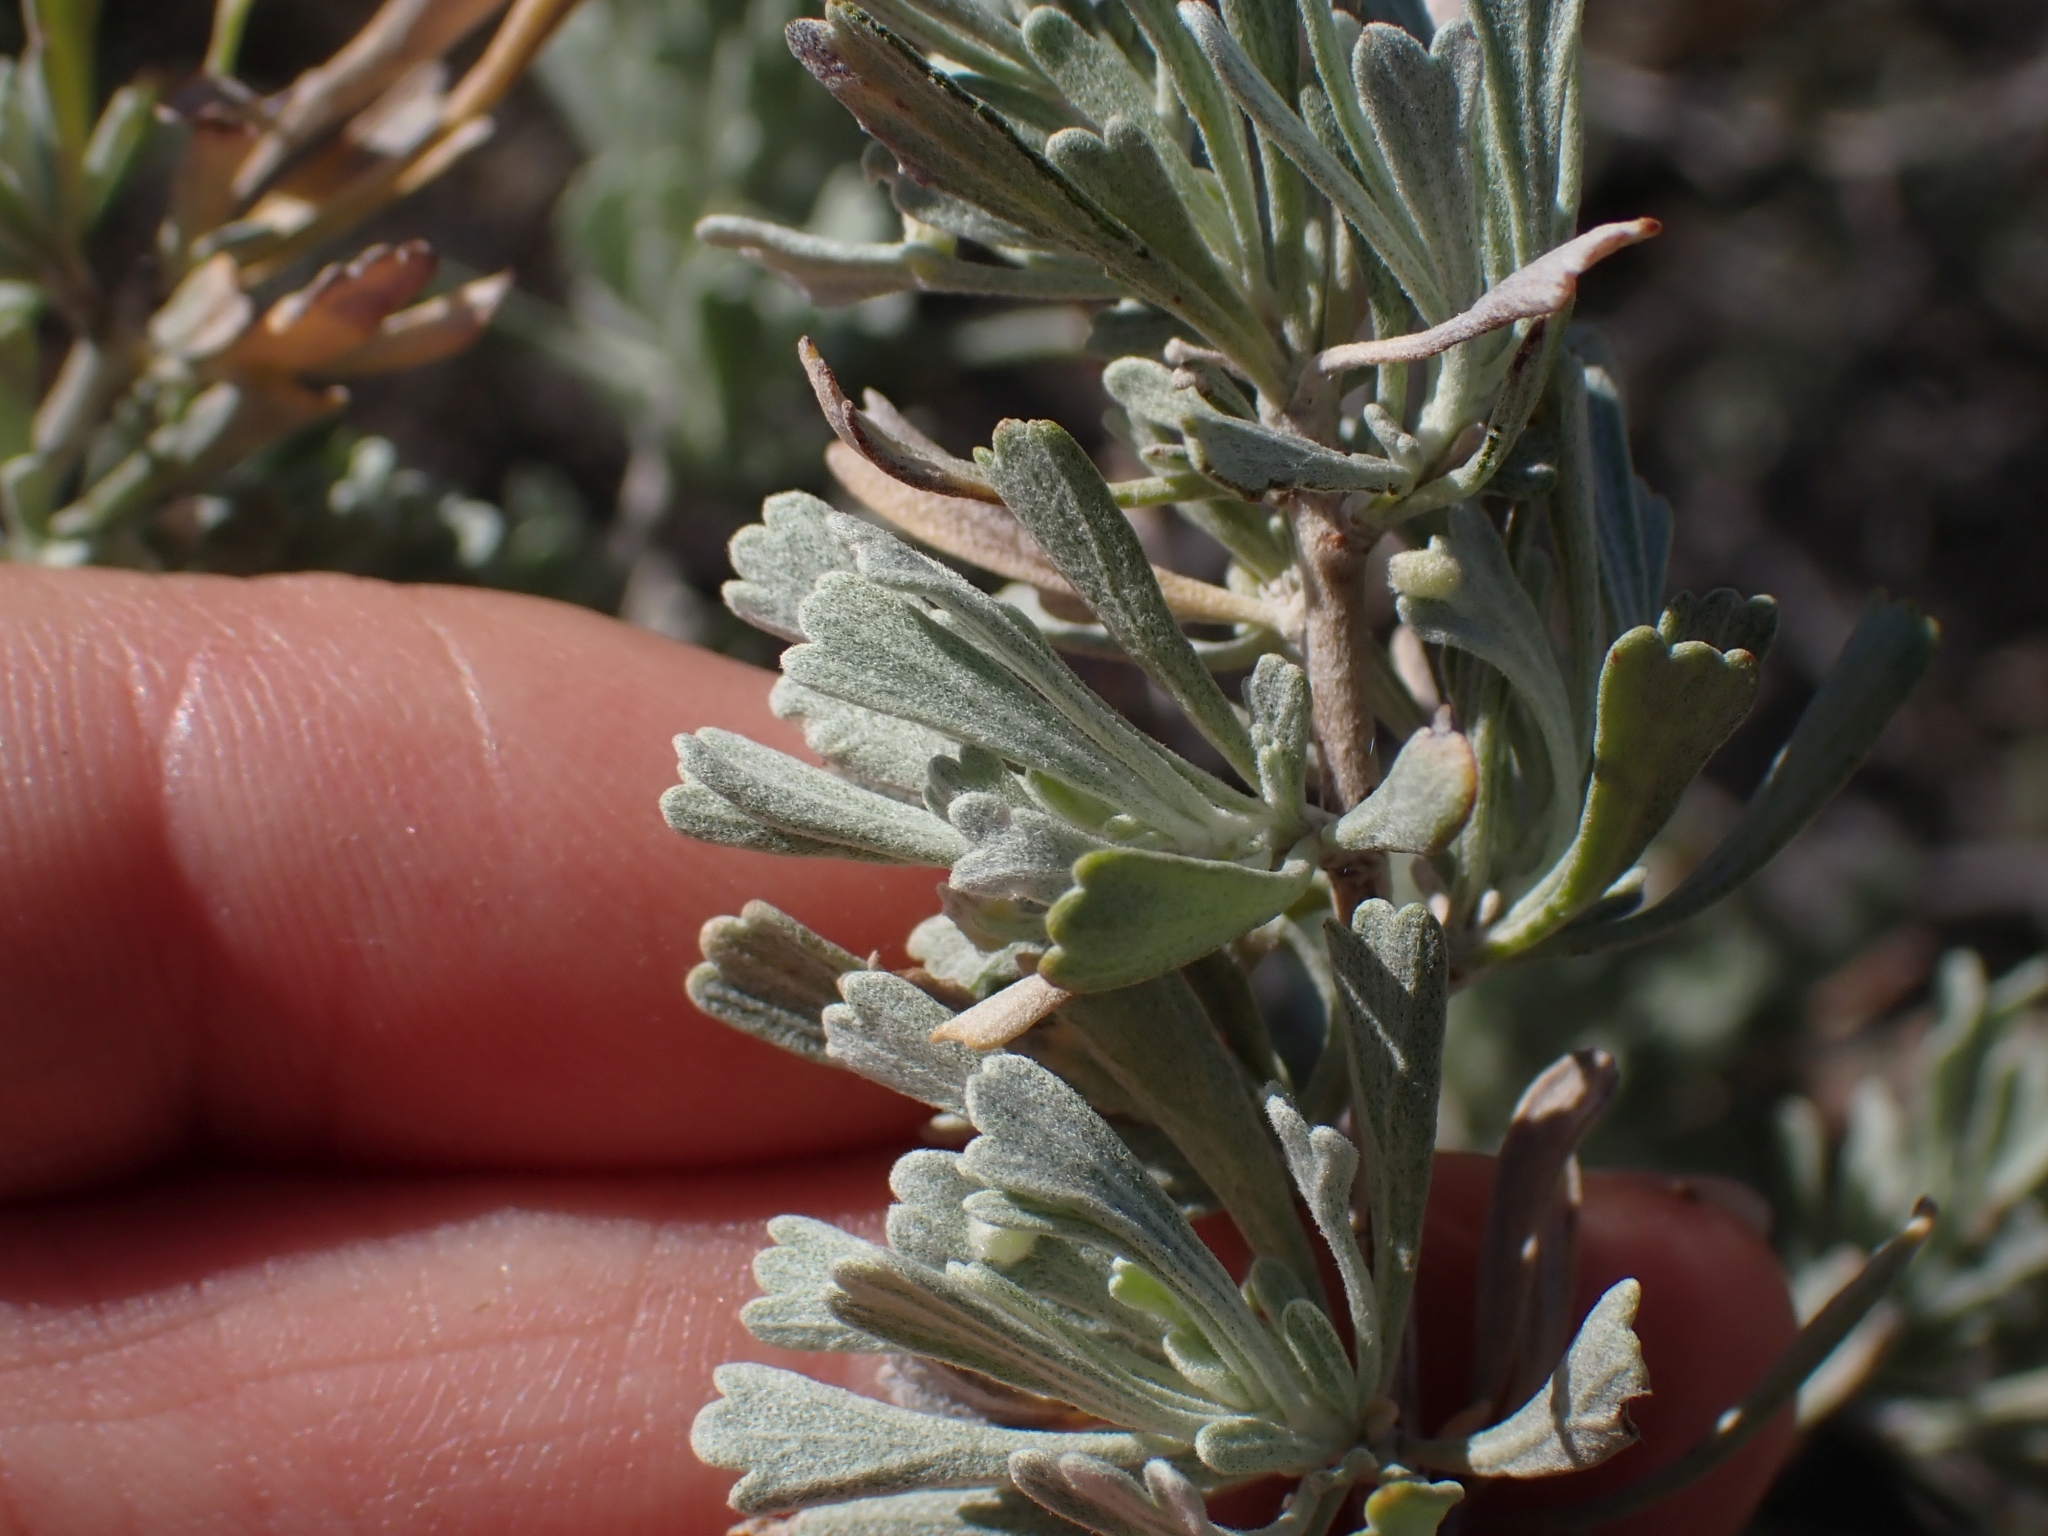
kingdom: Plantae
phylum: Tracheophyta
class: Magnoliopsida
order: Asterales
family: Asteraceae
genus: Artemisia
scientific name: Artemisia tridentata
